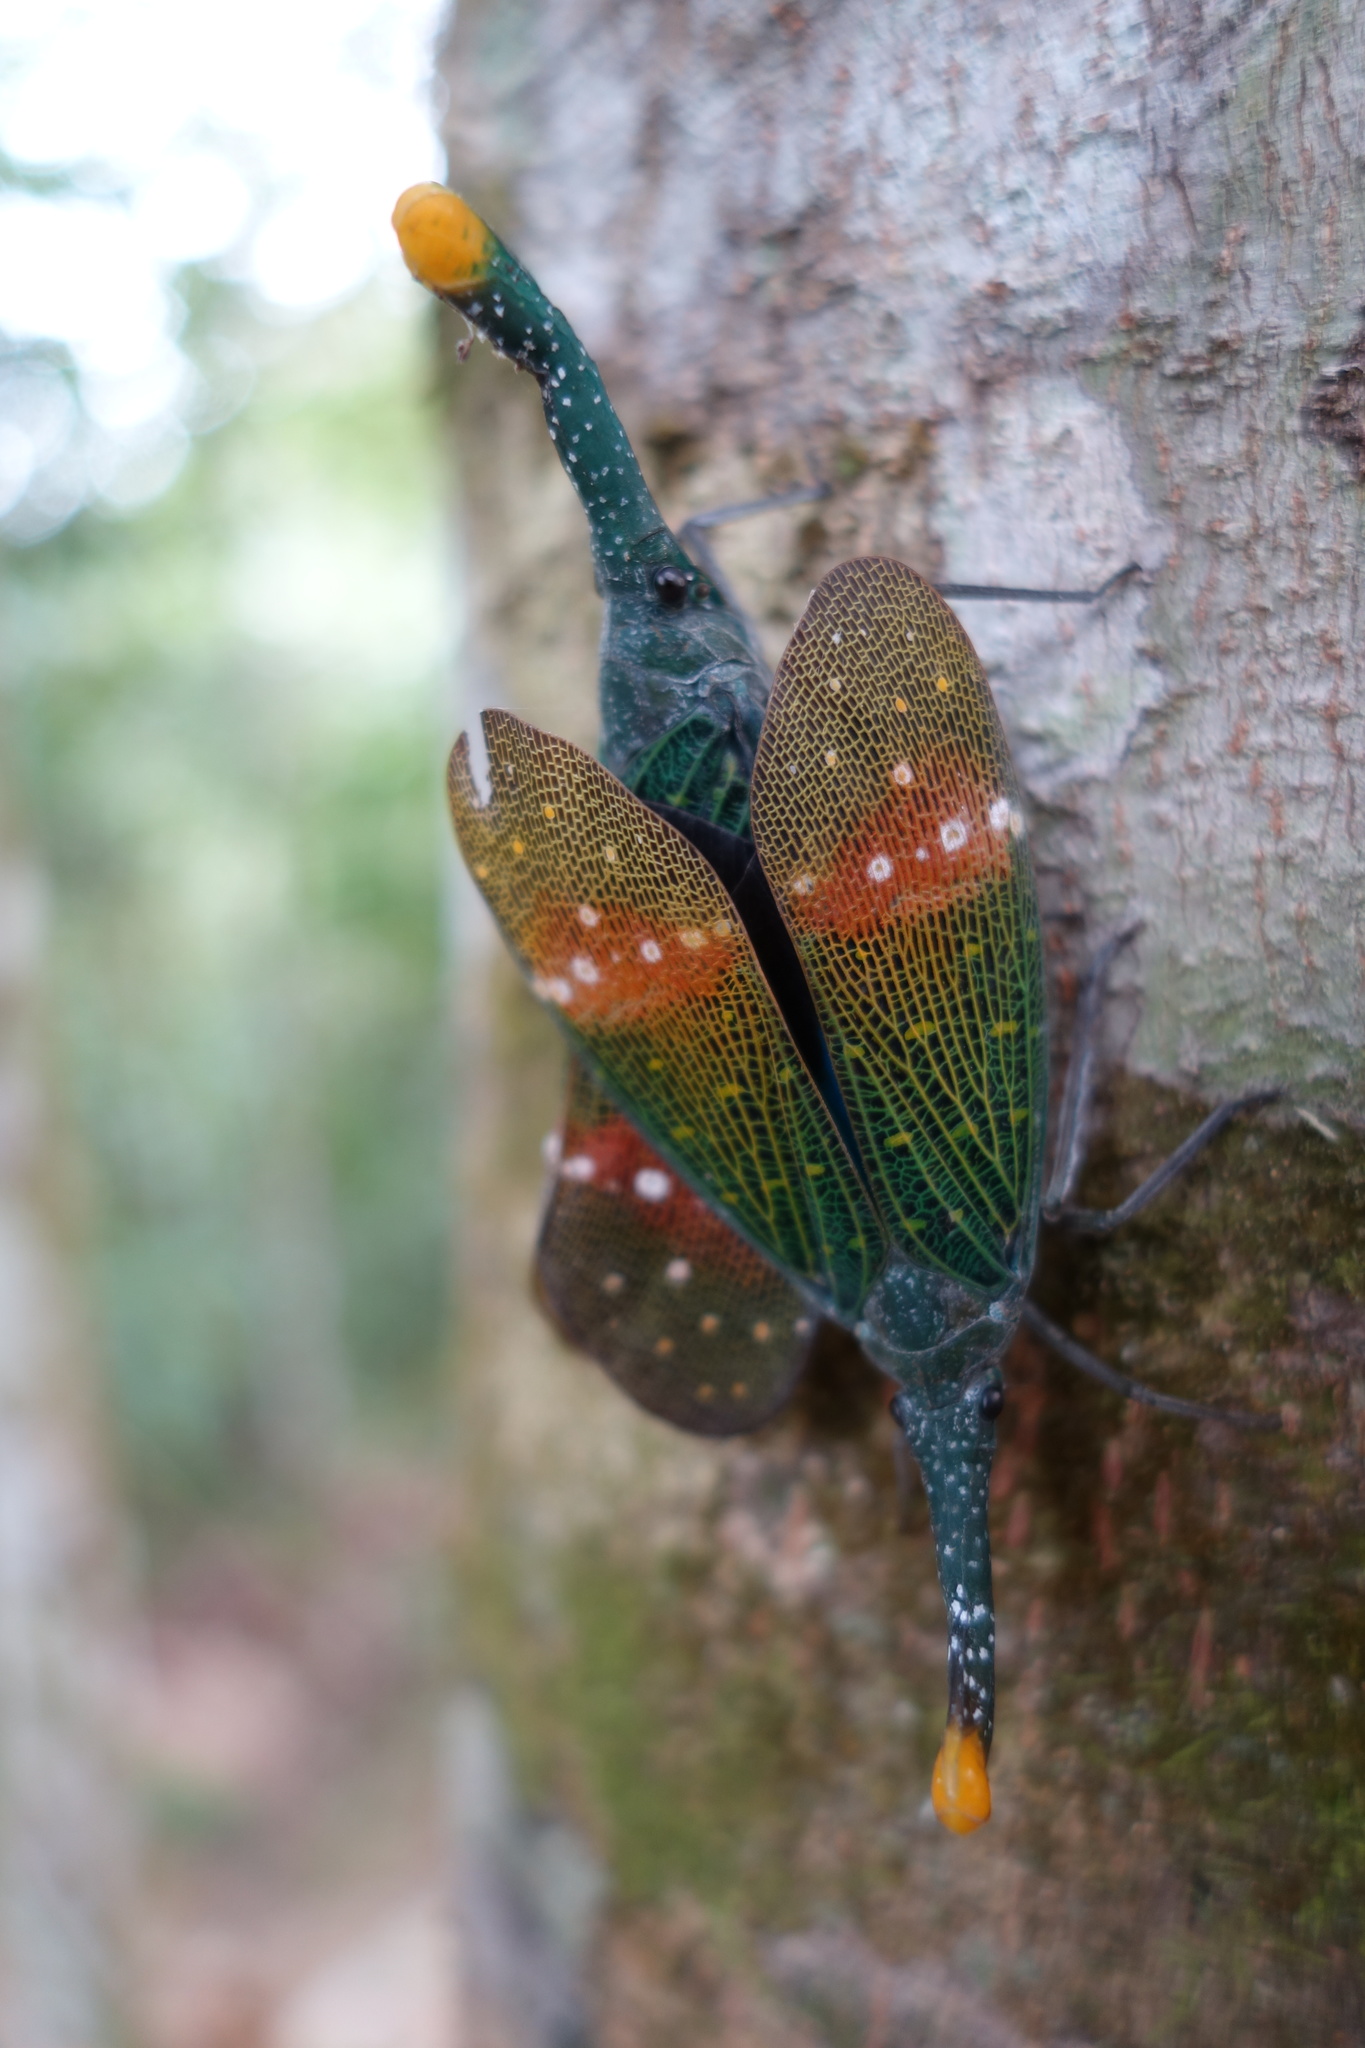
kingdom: Animalia
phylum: Arthropoda
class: Insecta
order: Hemiptera
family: Fulgoridae
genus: Pyrops
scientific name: Pyrops pythicus
